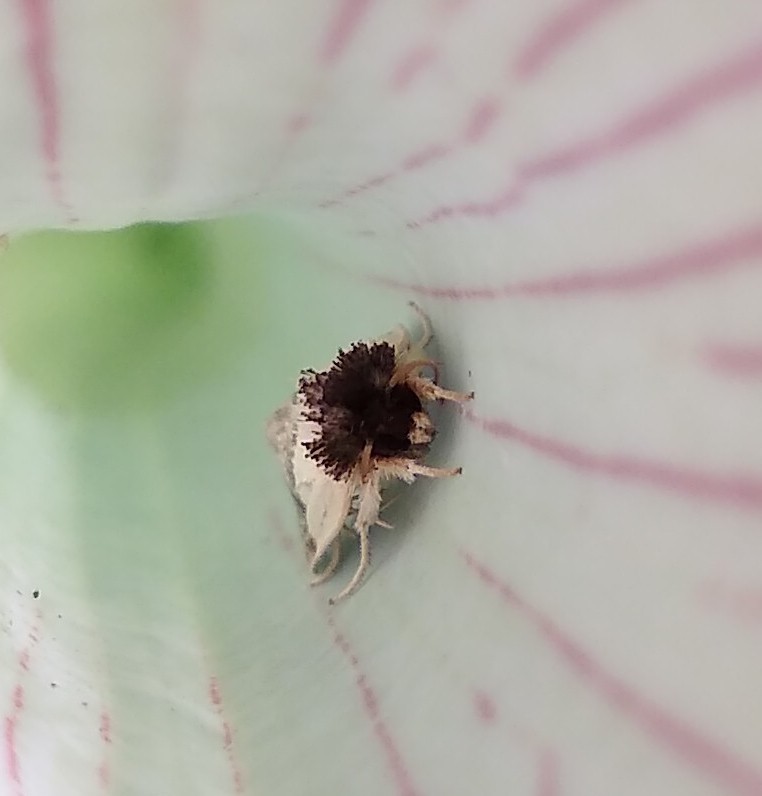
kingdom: Animalia
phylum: Arthropoda
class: Insecta
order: Lepidoptera
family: Noctuidae
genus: Exyra
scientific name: Exyra semicrocea
